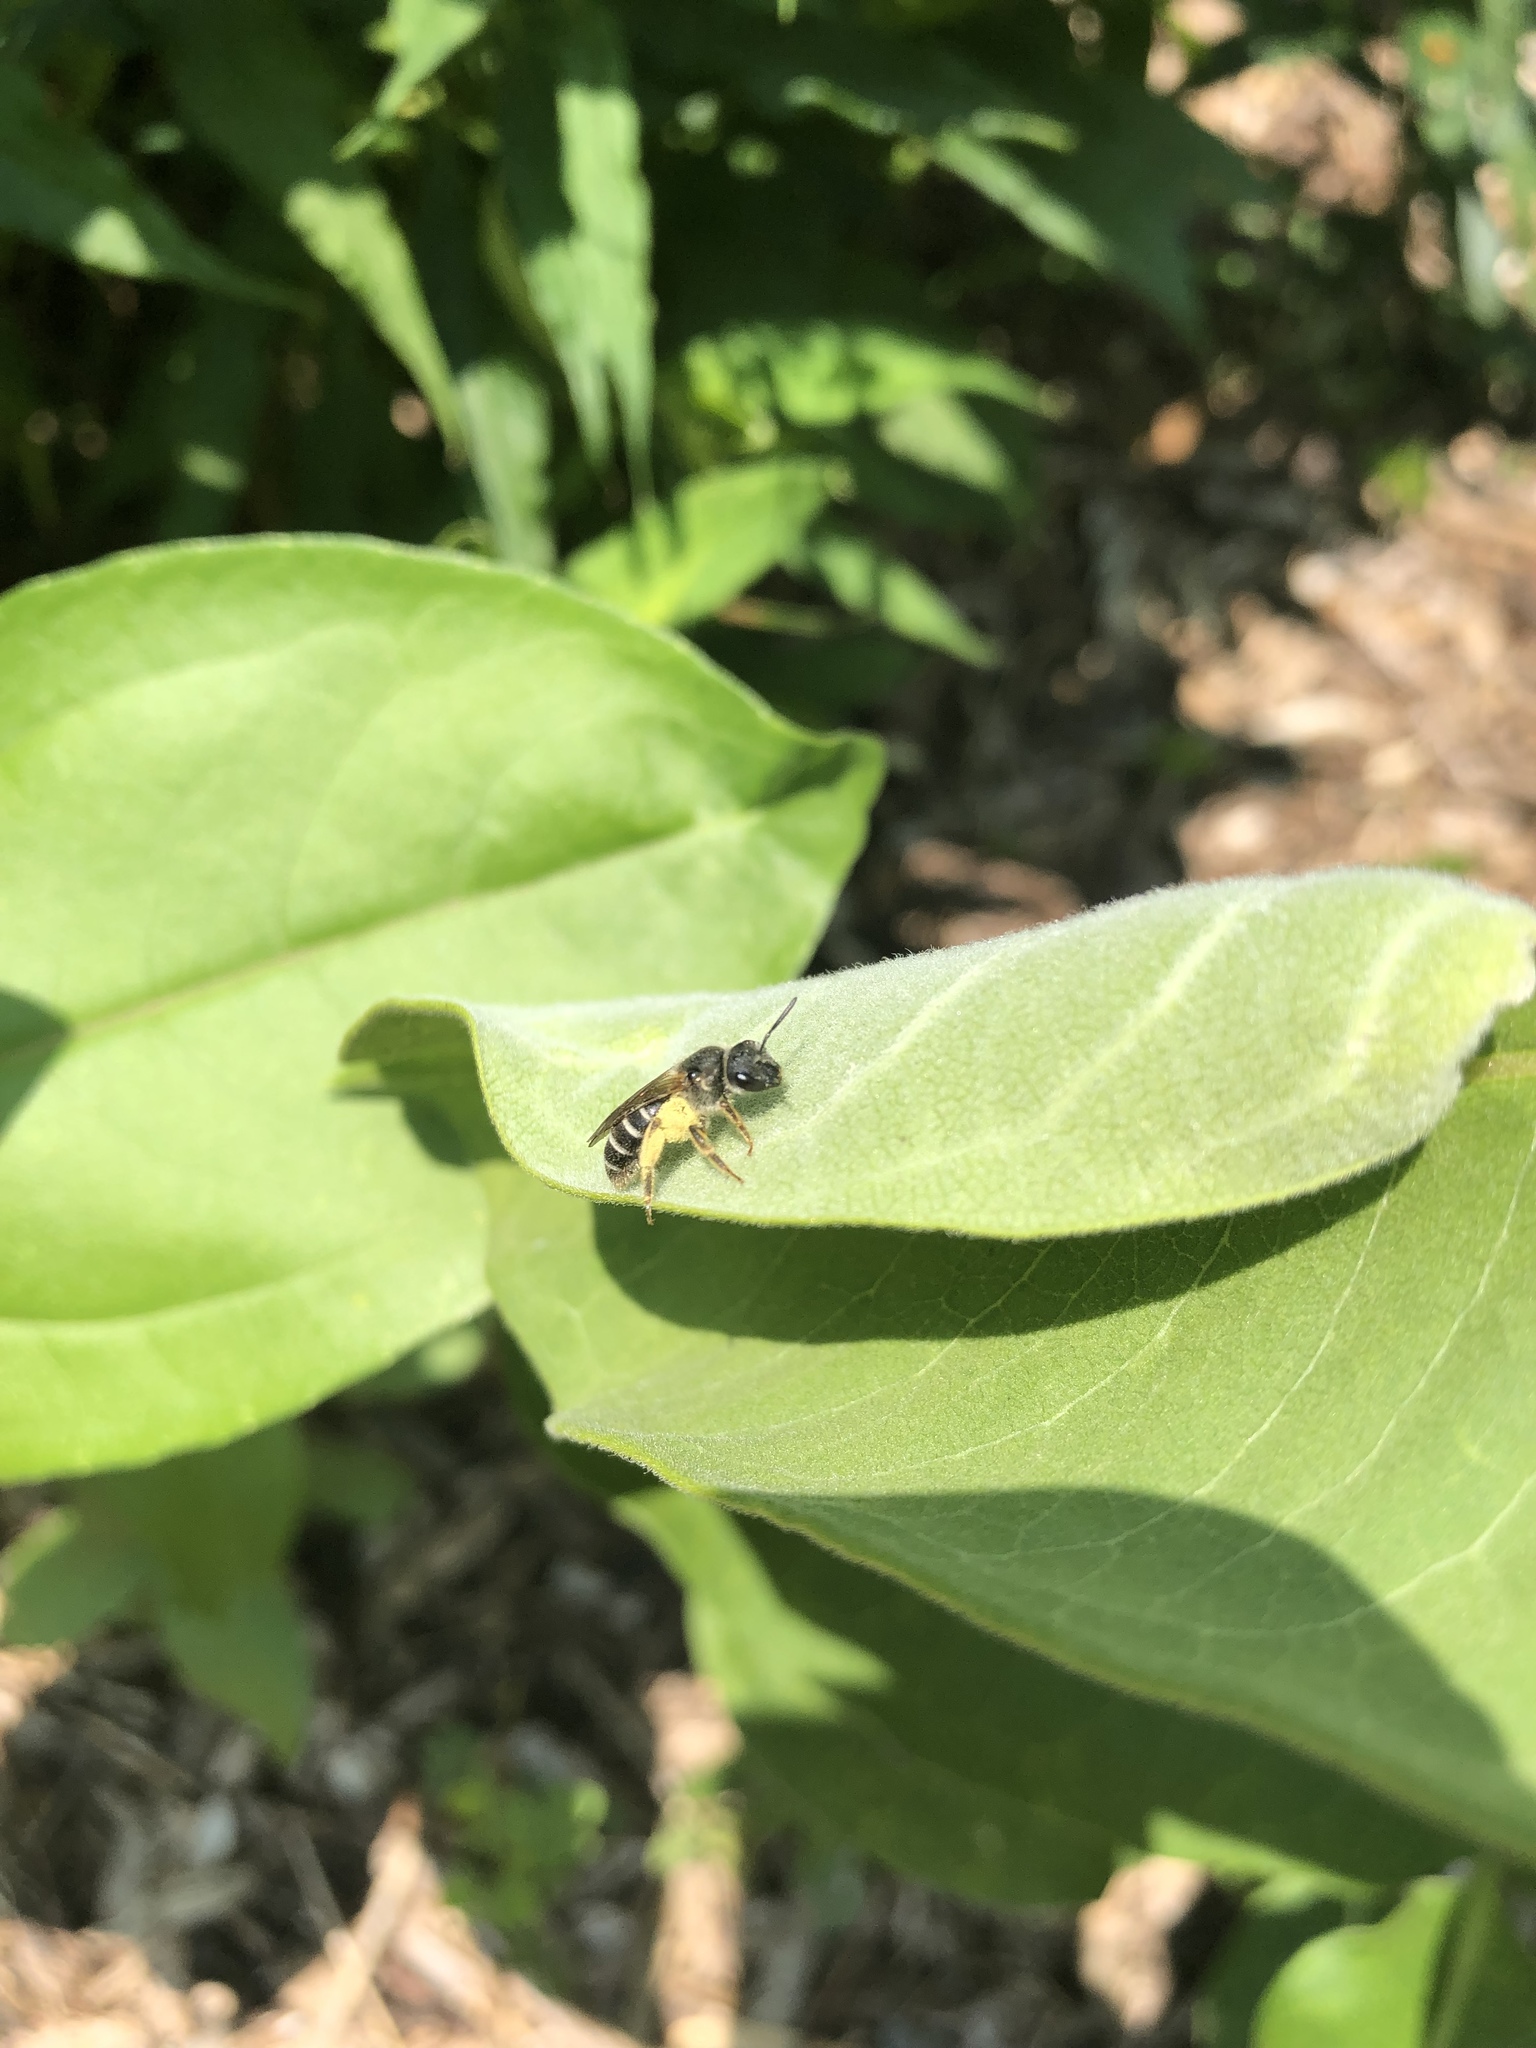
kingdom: Animalia
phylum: Arthropoda
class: Insecta
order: Hymenoptera
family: Halictidae
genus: Halictus
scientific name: Halictus rubicundus
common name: Orange-legged furrow bee
